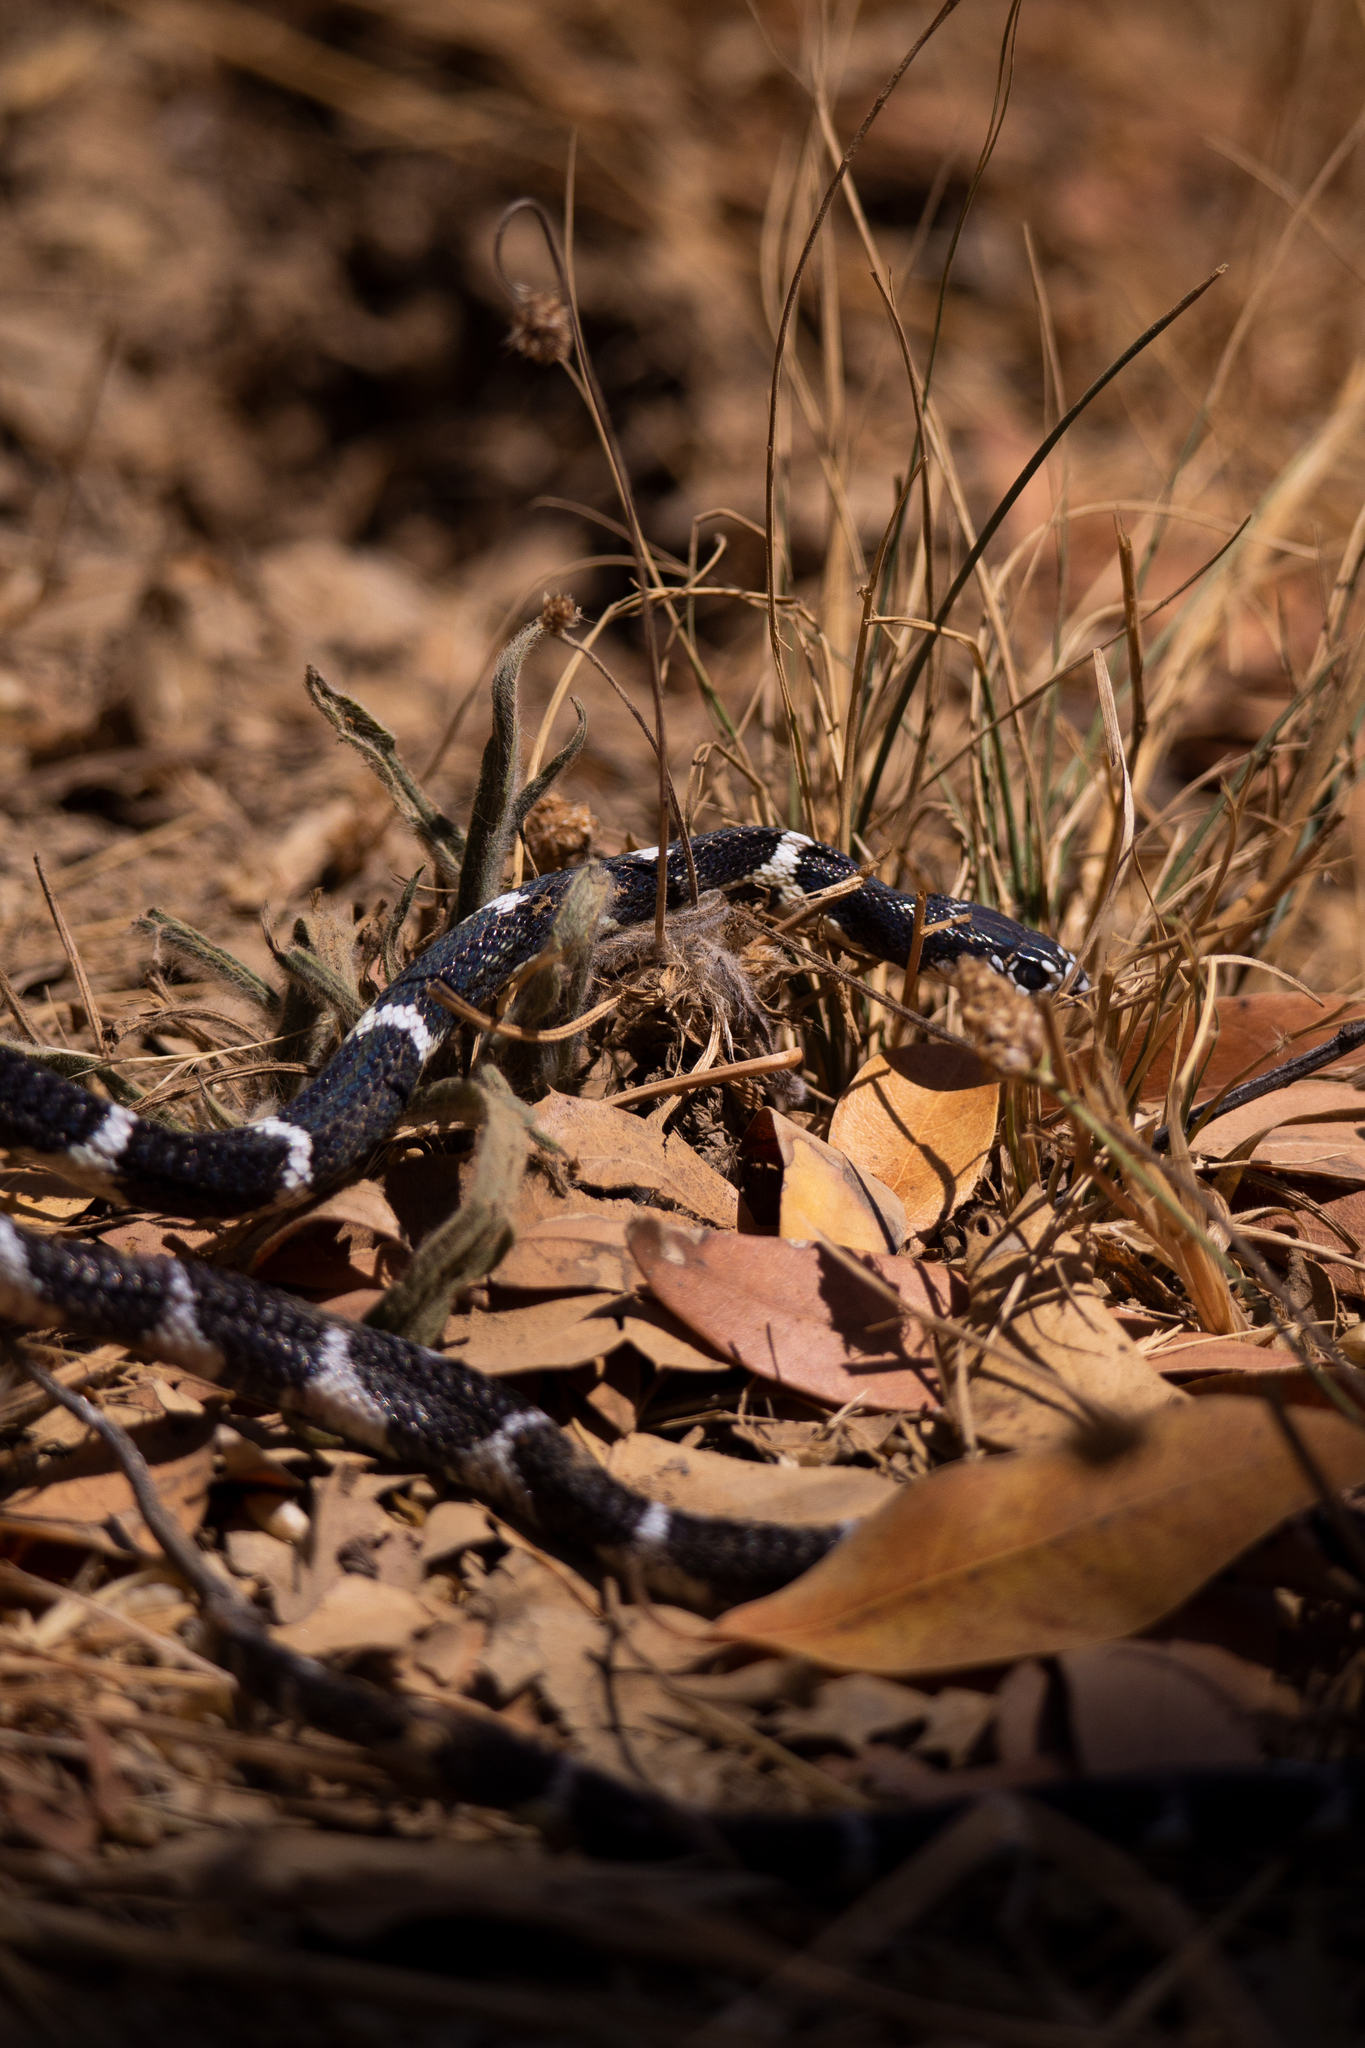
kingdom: Animalia
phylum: Chordata
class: Squamata
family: Colubridae
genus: Lampropeltis
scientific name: Lampropeltis californiae
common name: California kingsnake
